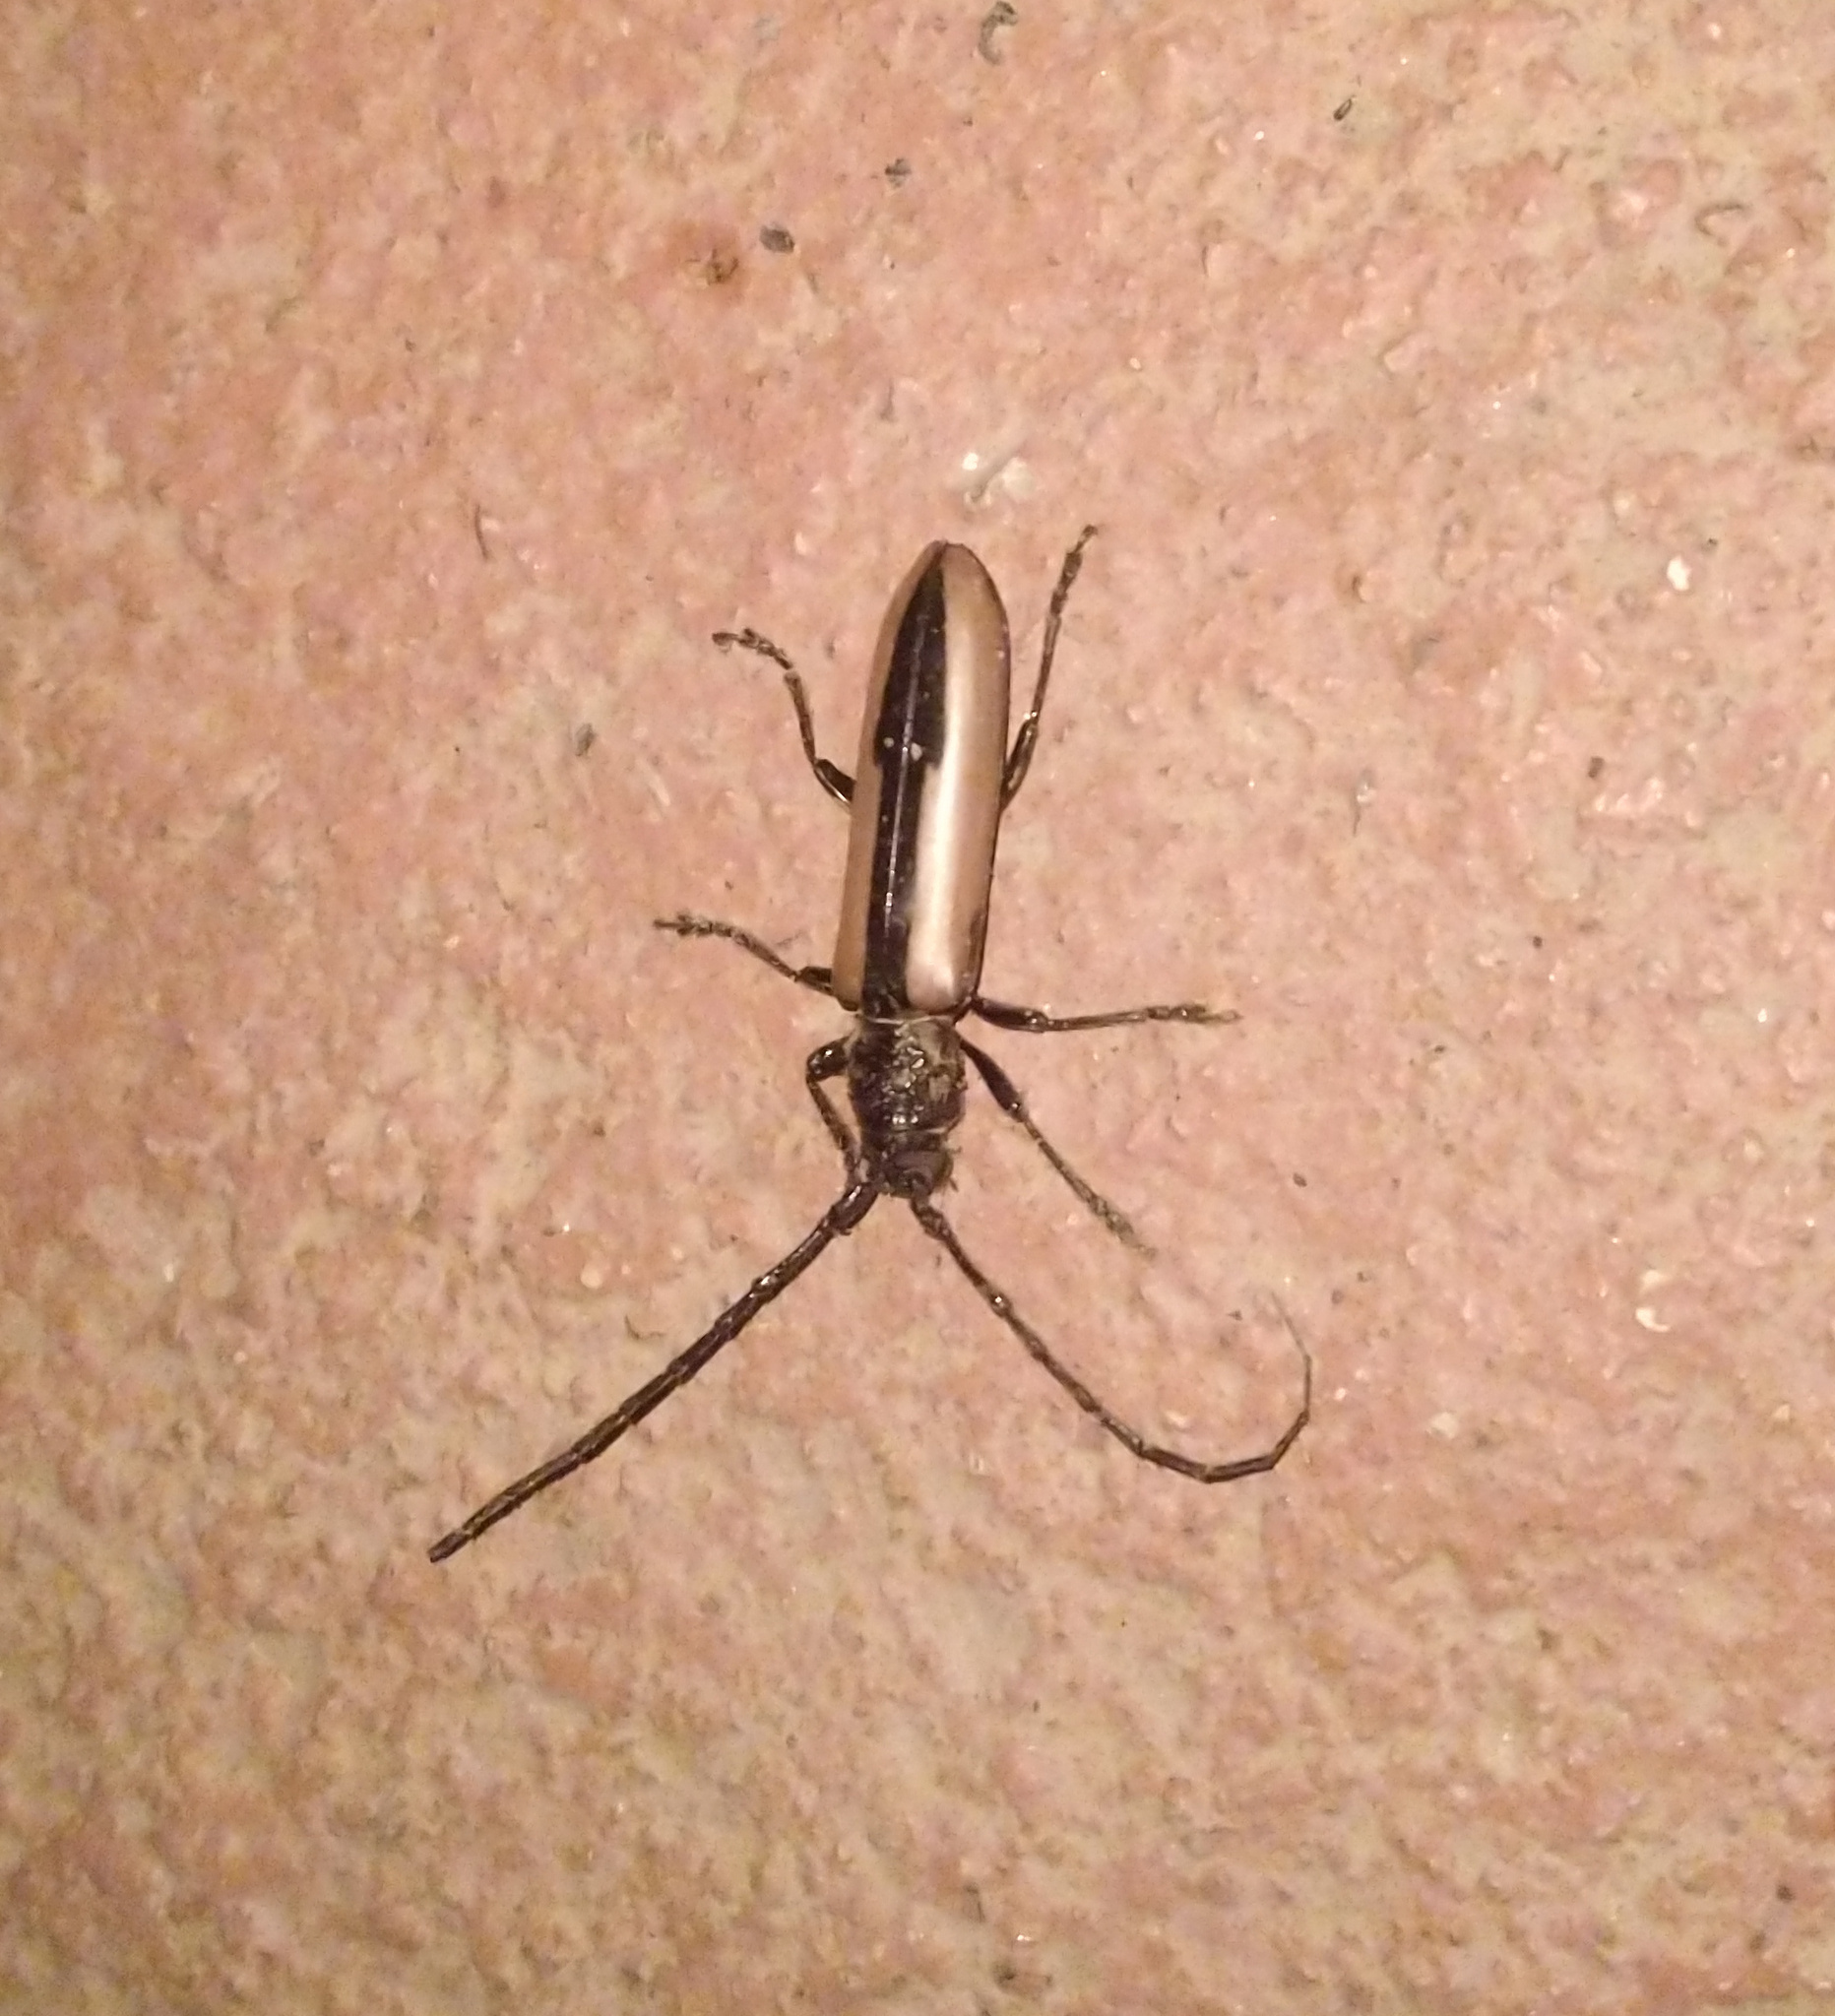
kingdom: Animalia
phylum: Arthropoda
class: Insecta
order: Coleoptera
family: Cerambycidae
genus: Poeciloxestia
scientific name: Poeciloxestia elegans
